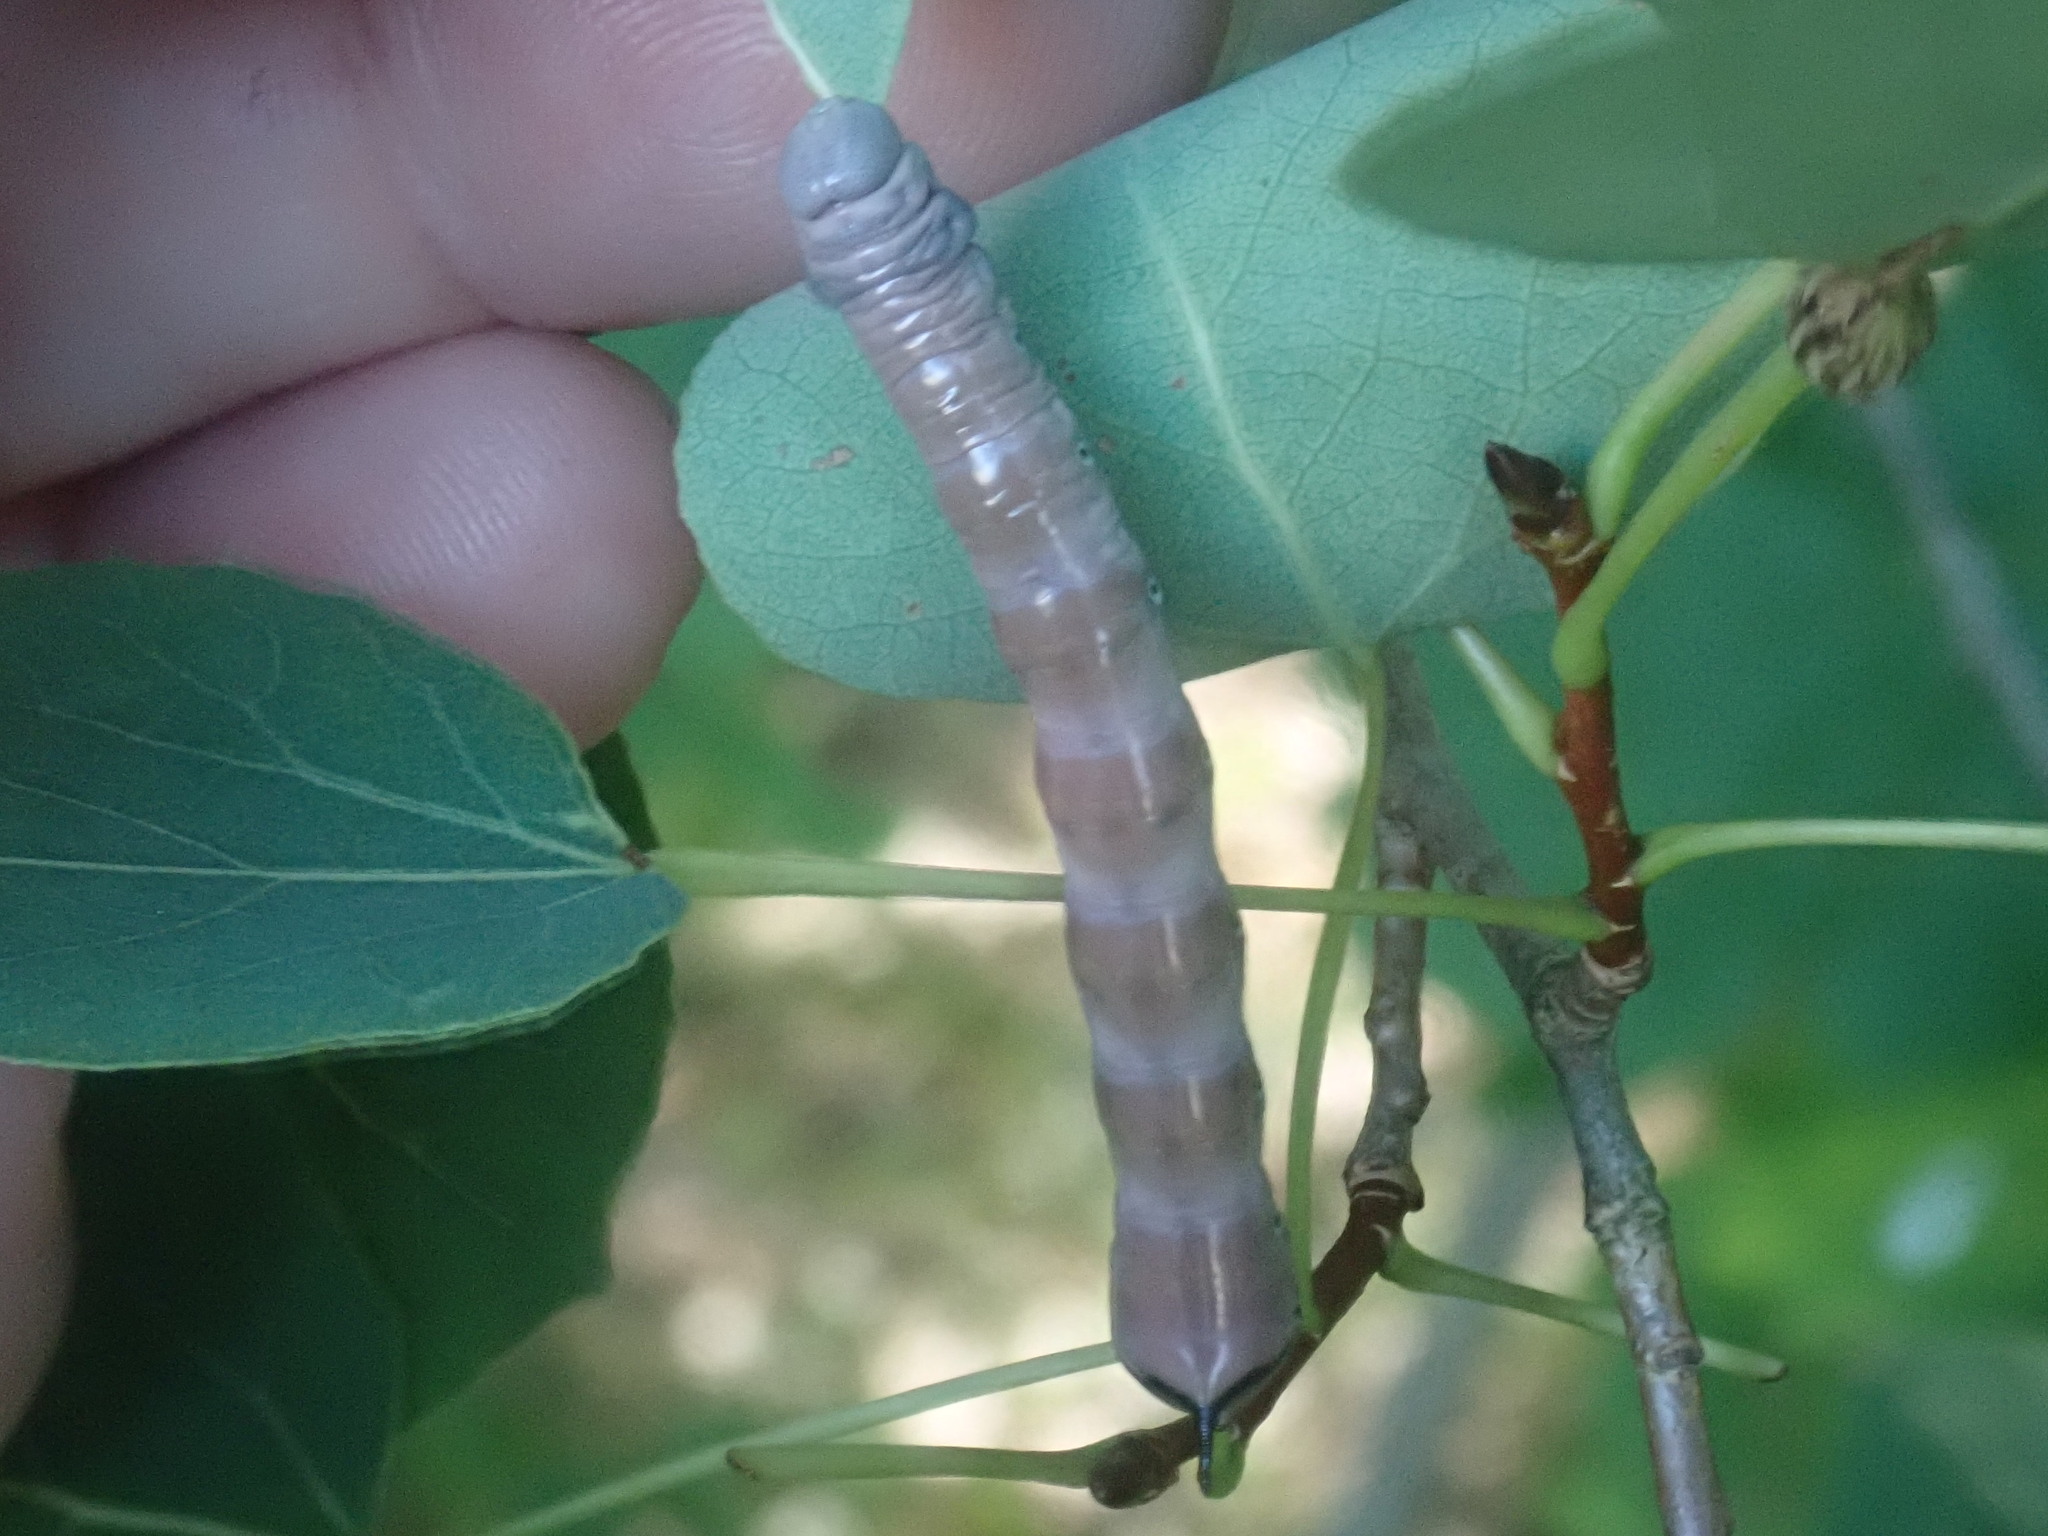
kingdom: Animalia
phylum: Arthropoda
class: Insecta
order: Lepidoptera
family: Notodontidae
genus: Pheosia
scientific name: Pheosia rimosa
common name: Black-rimmed prominent
